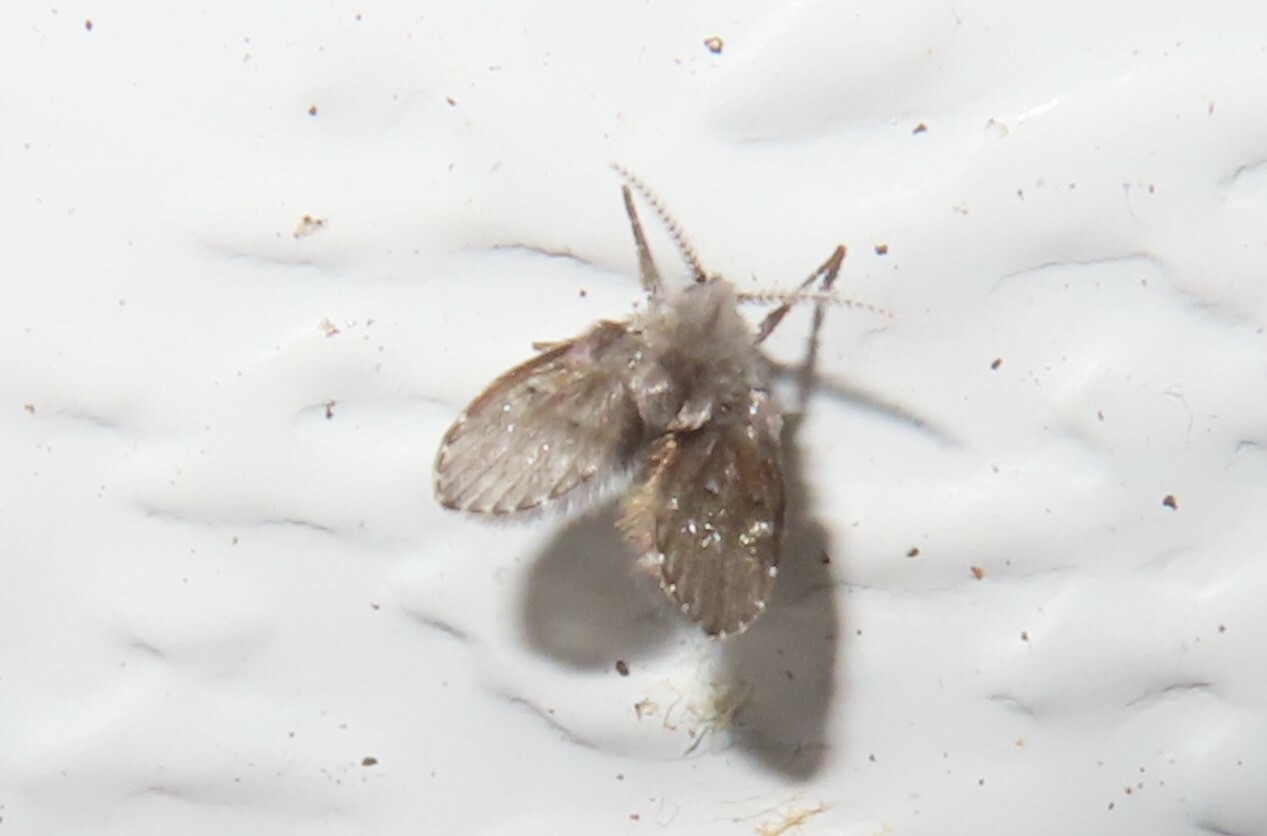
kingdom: Animalia
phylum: Arthropoda
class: Insecta
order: Diptera
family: Psychodidae
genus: Clogmia
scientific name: Clogmia albipunctatus
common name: White-spotted moth fly
